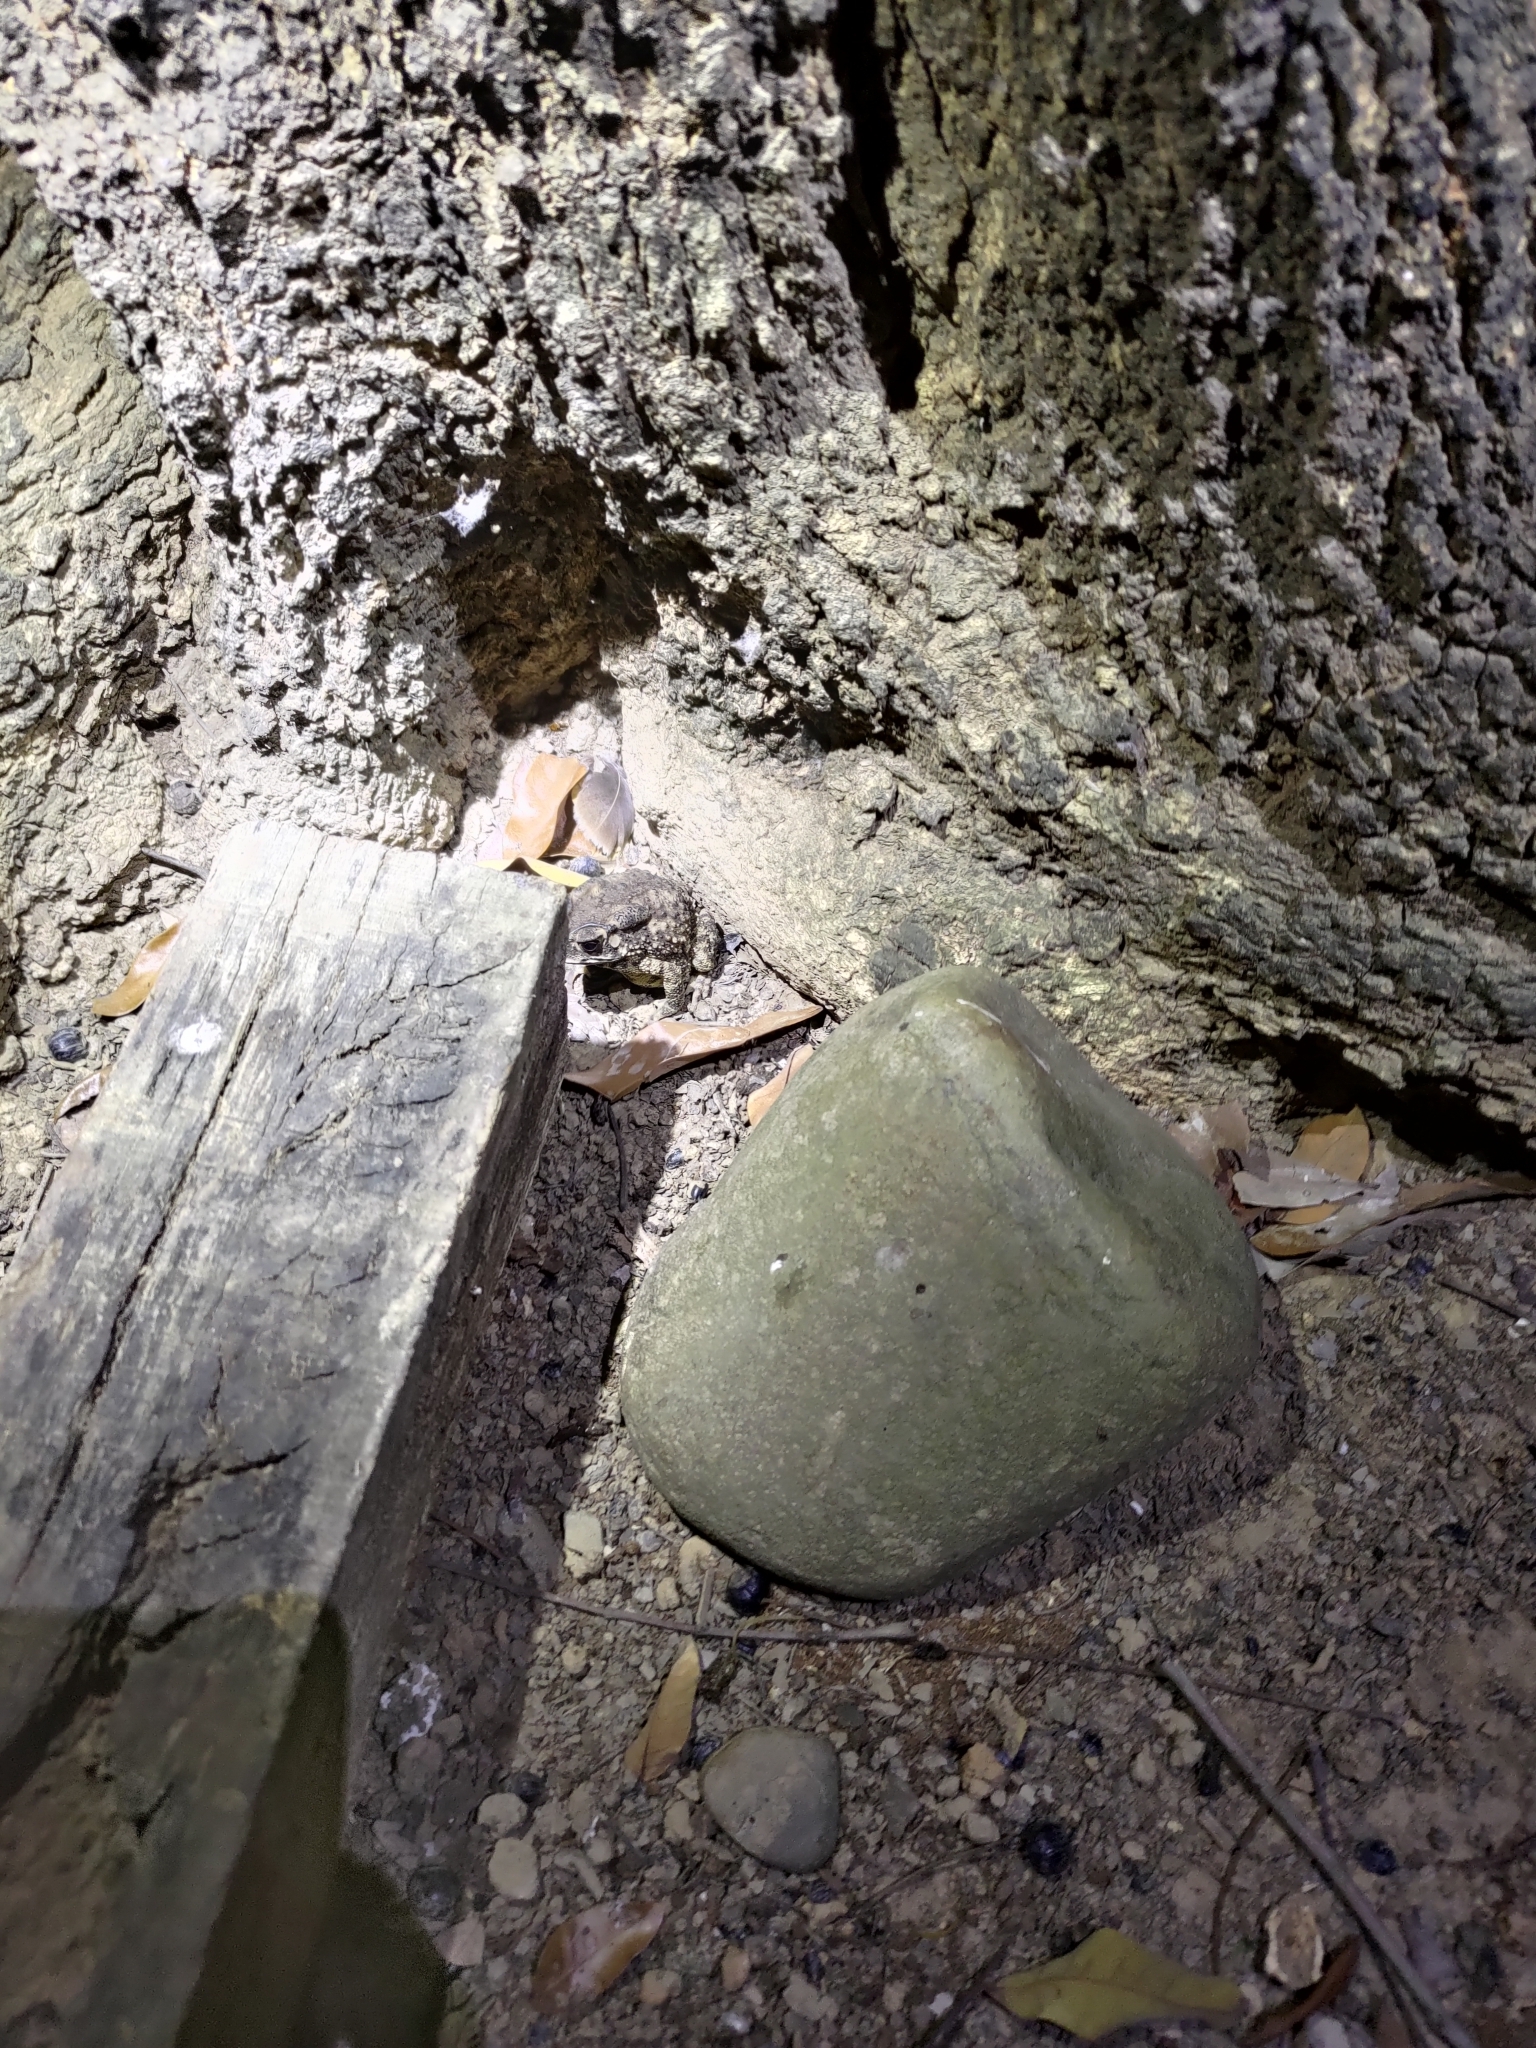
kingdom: Animalia
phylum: Chordata
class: Amphibia
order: Anura
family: Bufonidae
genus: Duttaphrynus
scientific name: Duttaphrynus melanostictus
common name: Common sunda toad
